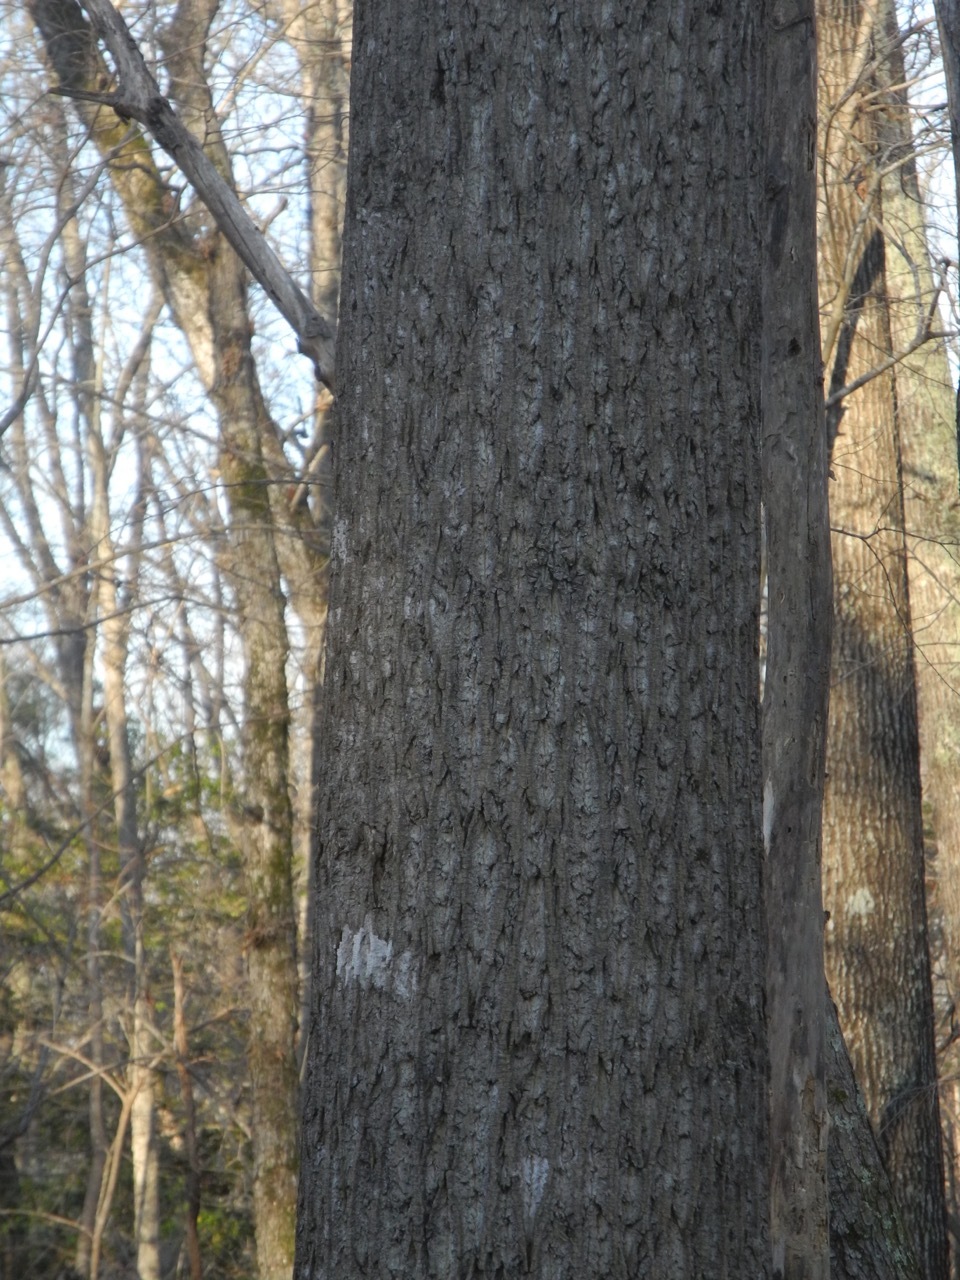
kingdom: Plantae
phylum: Tracheophyta
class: Magnoliopsida
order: Magnoliales
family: Magnoliaceae
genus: Liriodendron
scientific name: Liriodendron tulipifera
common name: Tulip tree
